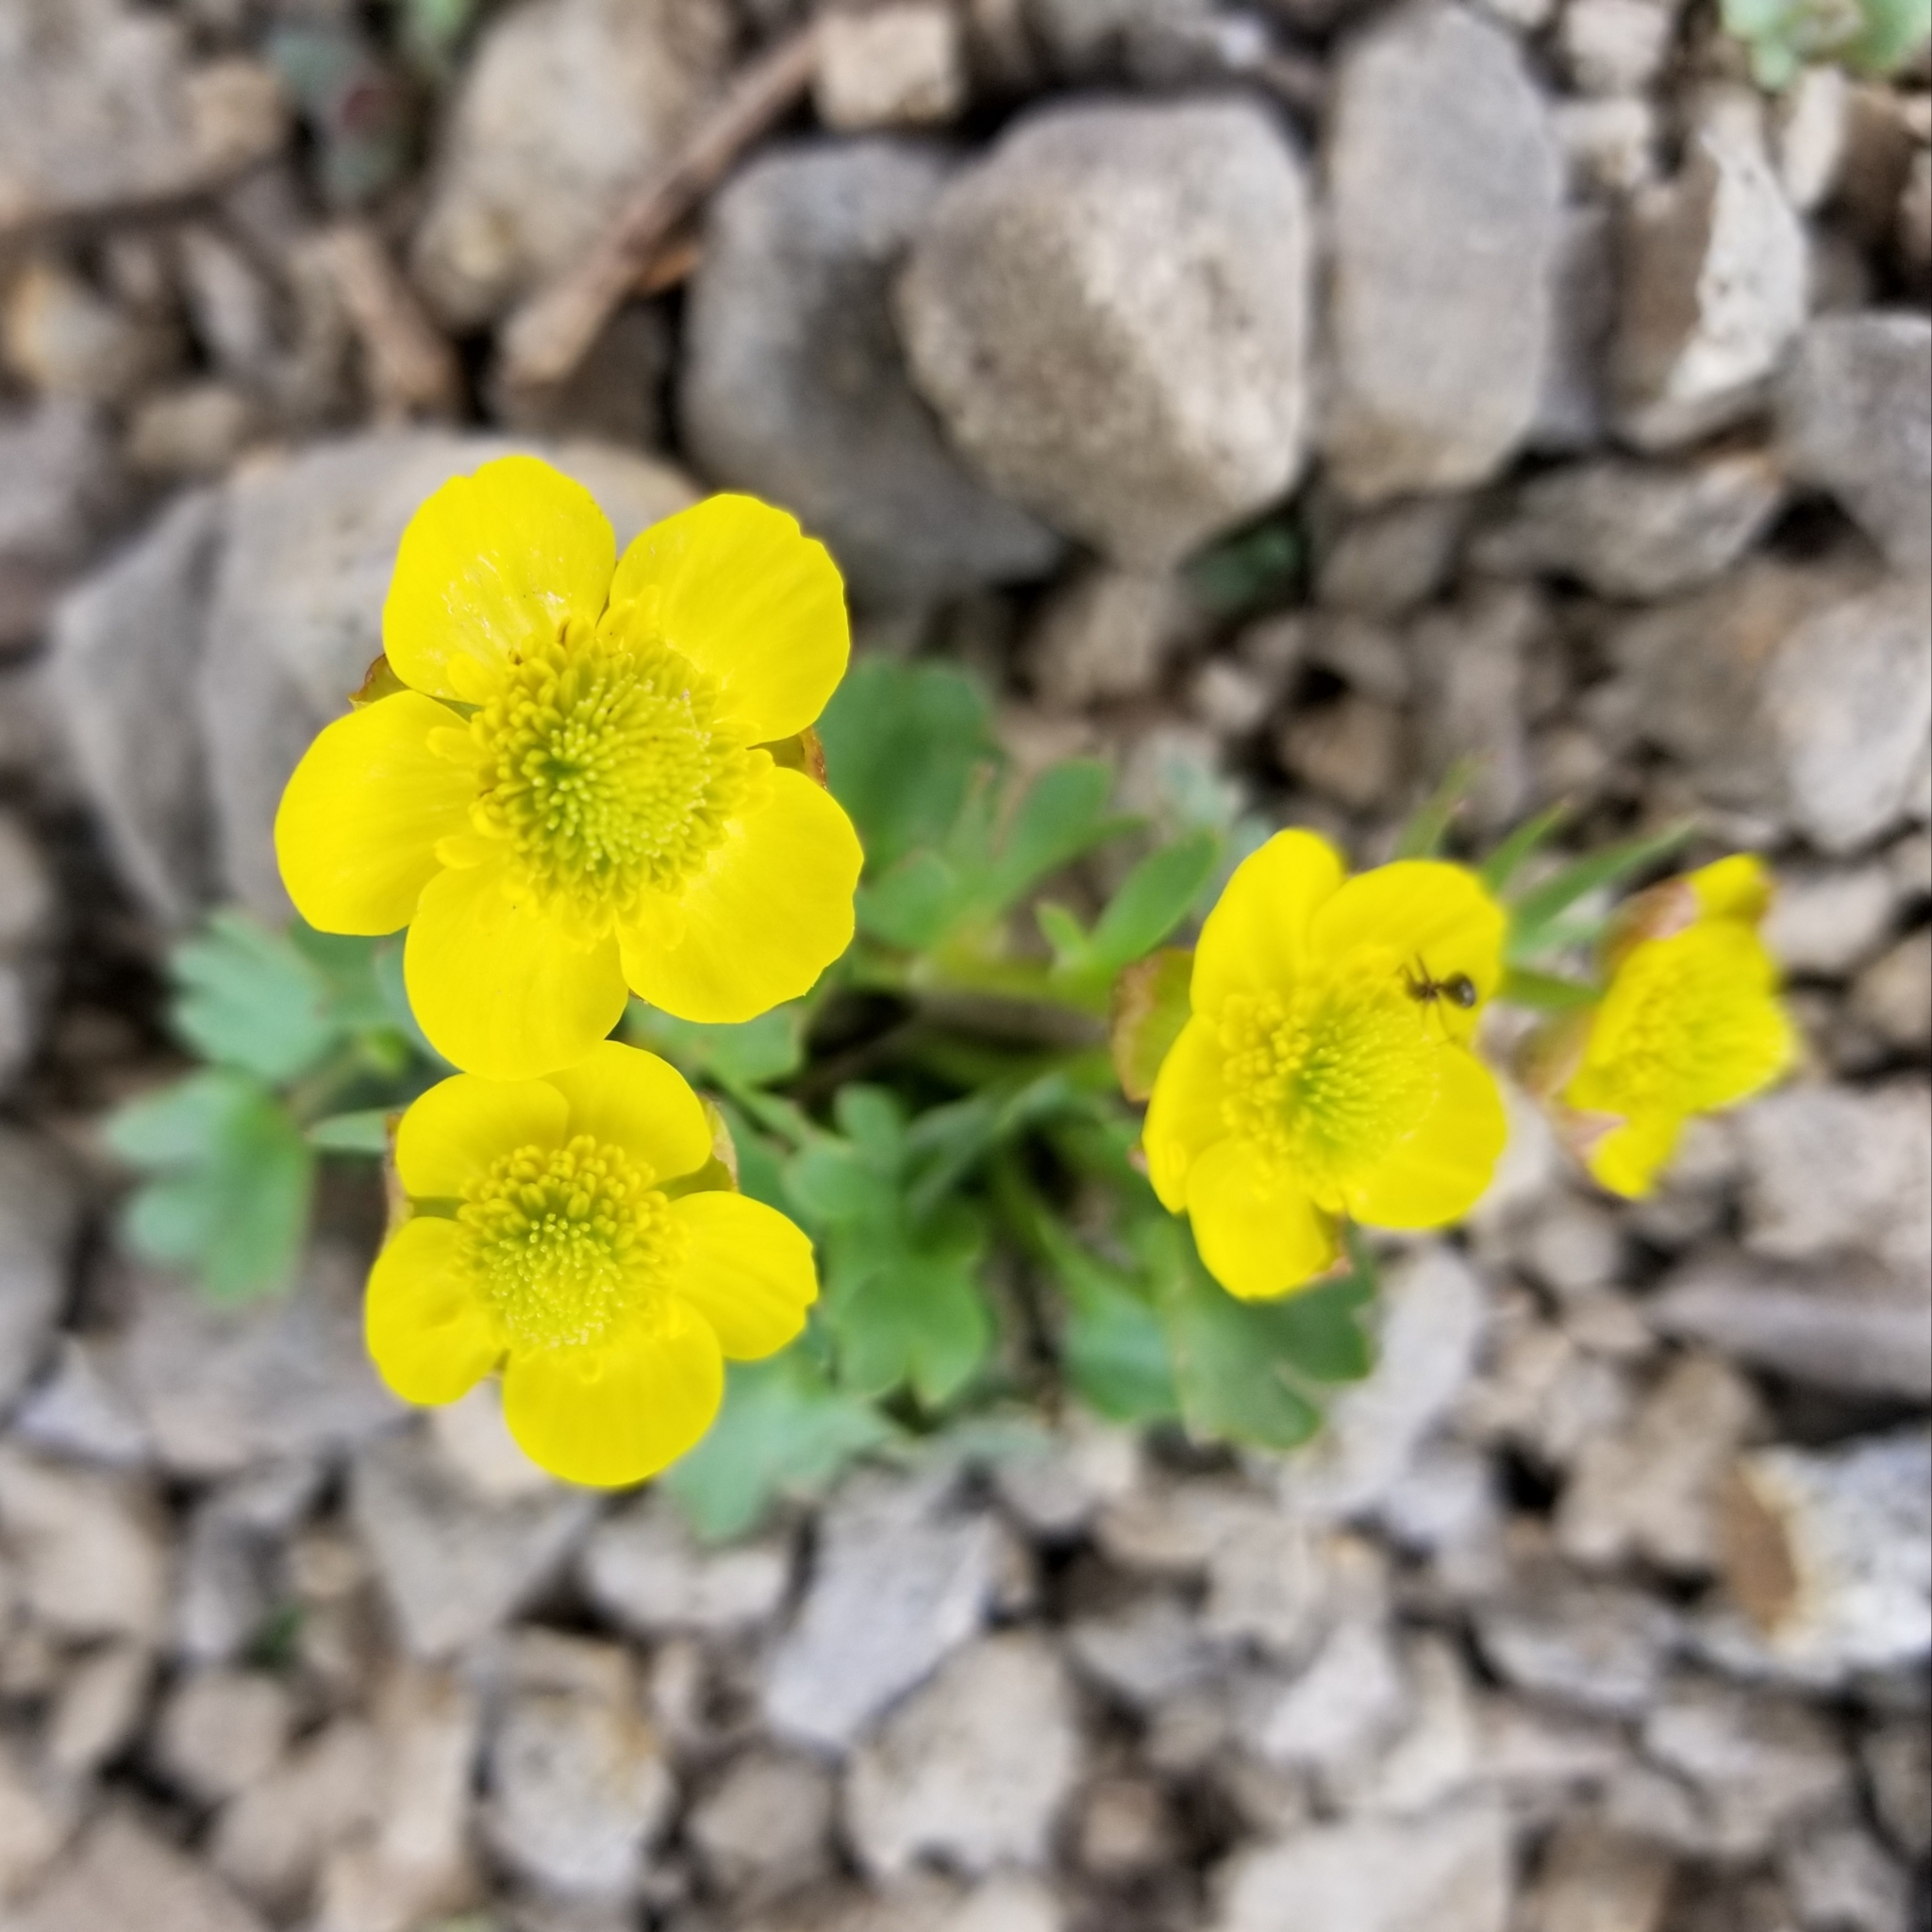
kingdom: Plantae
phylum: Tracheophyta
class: Magnoliopsida
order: Ranunculales
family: Ranunculaceae
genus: Ranunculus
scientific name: Ranunculus eschscholtzii
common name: Eschscholtz's buttercup
